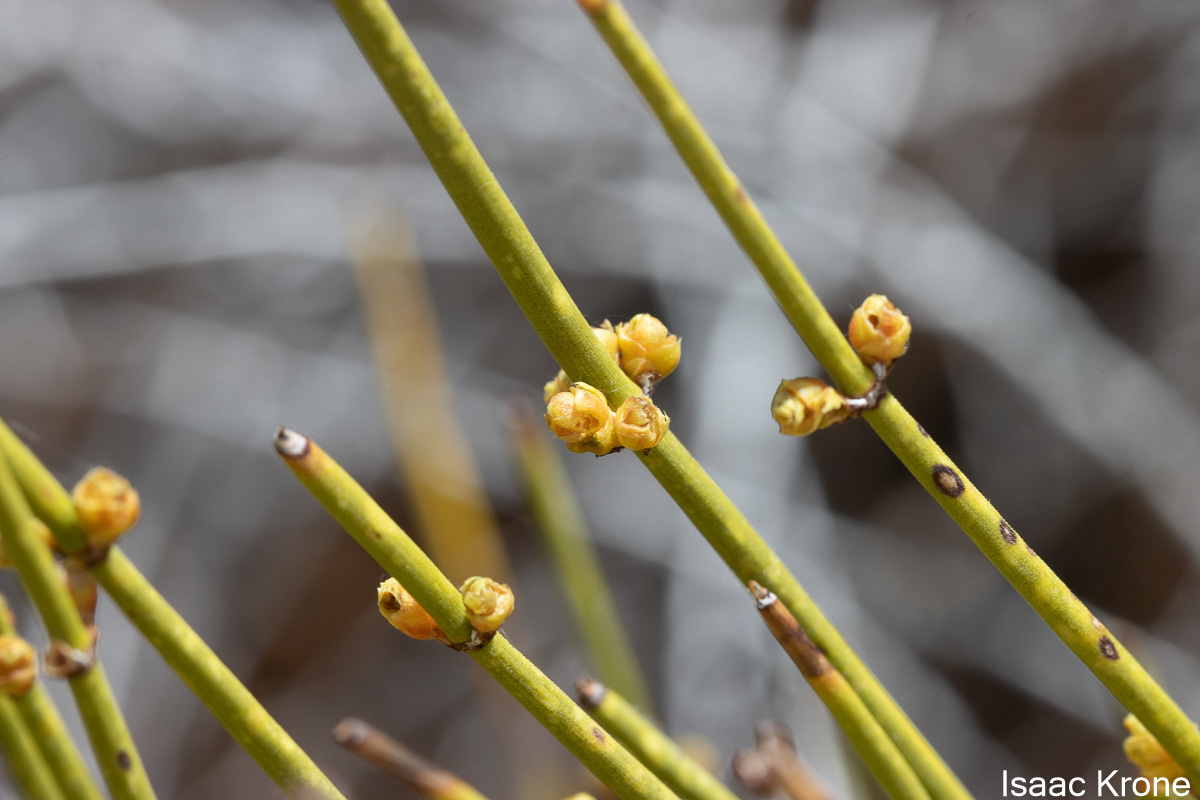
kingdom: Plantae
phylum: Tracheophyta
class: Gnetopsida
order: Ephedrales
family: Ephedraceae
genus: Ephedra
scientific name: Ephedra viridis
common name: Green ephedra
